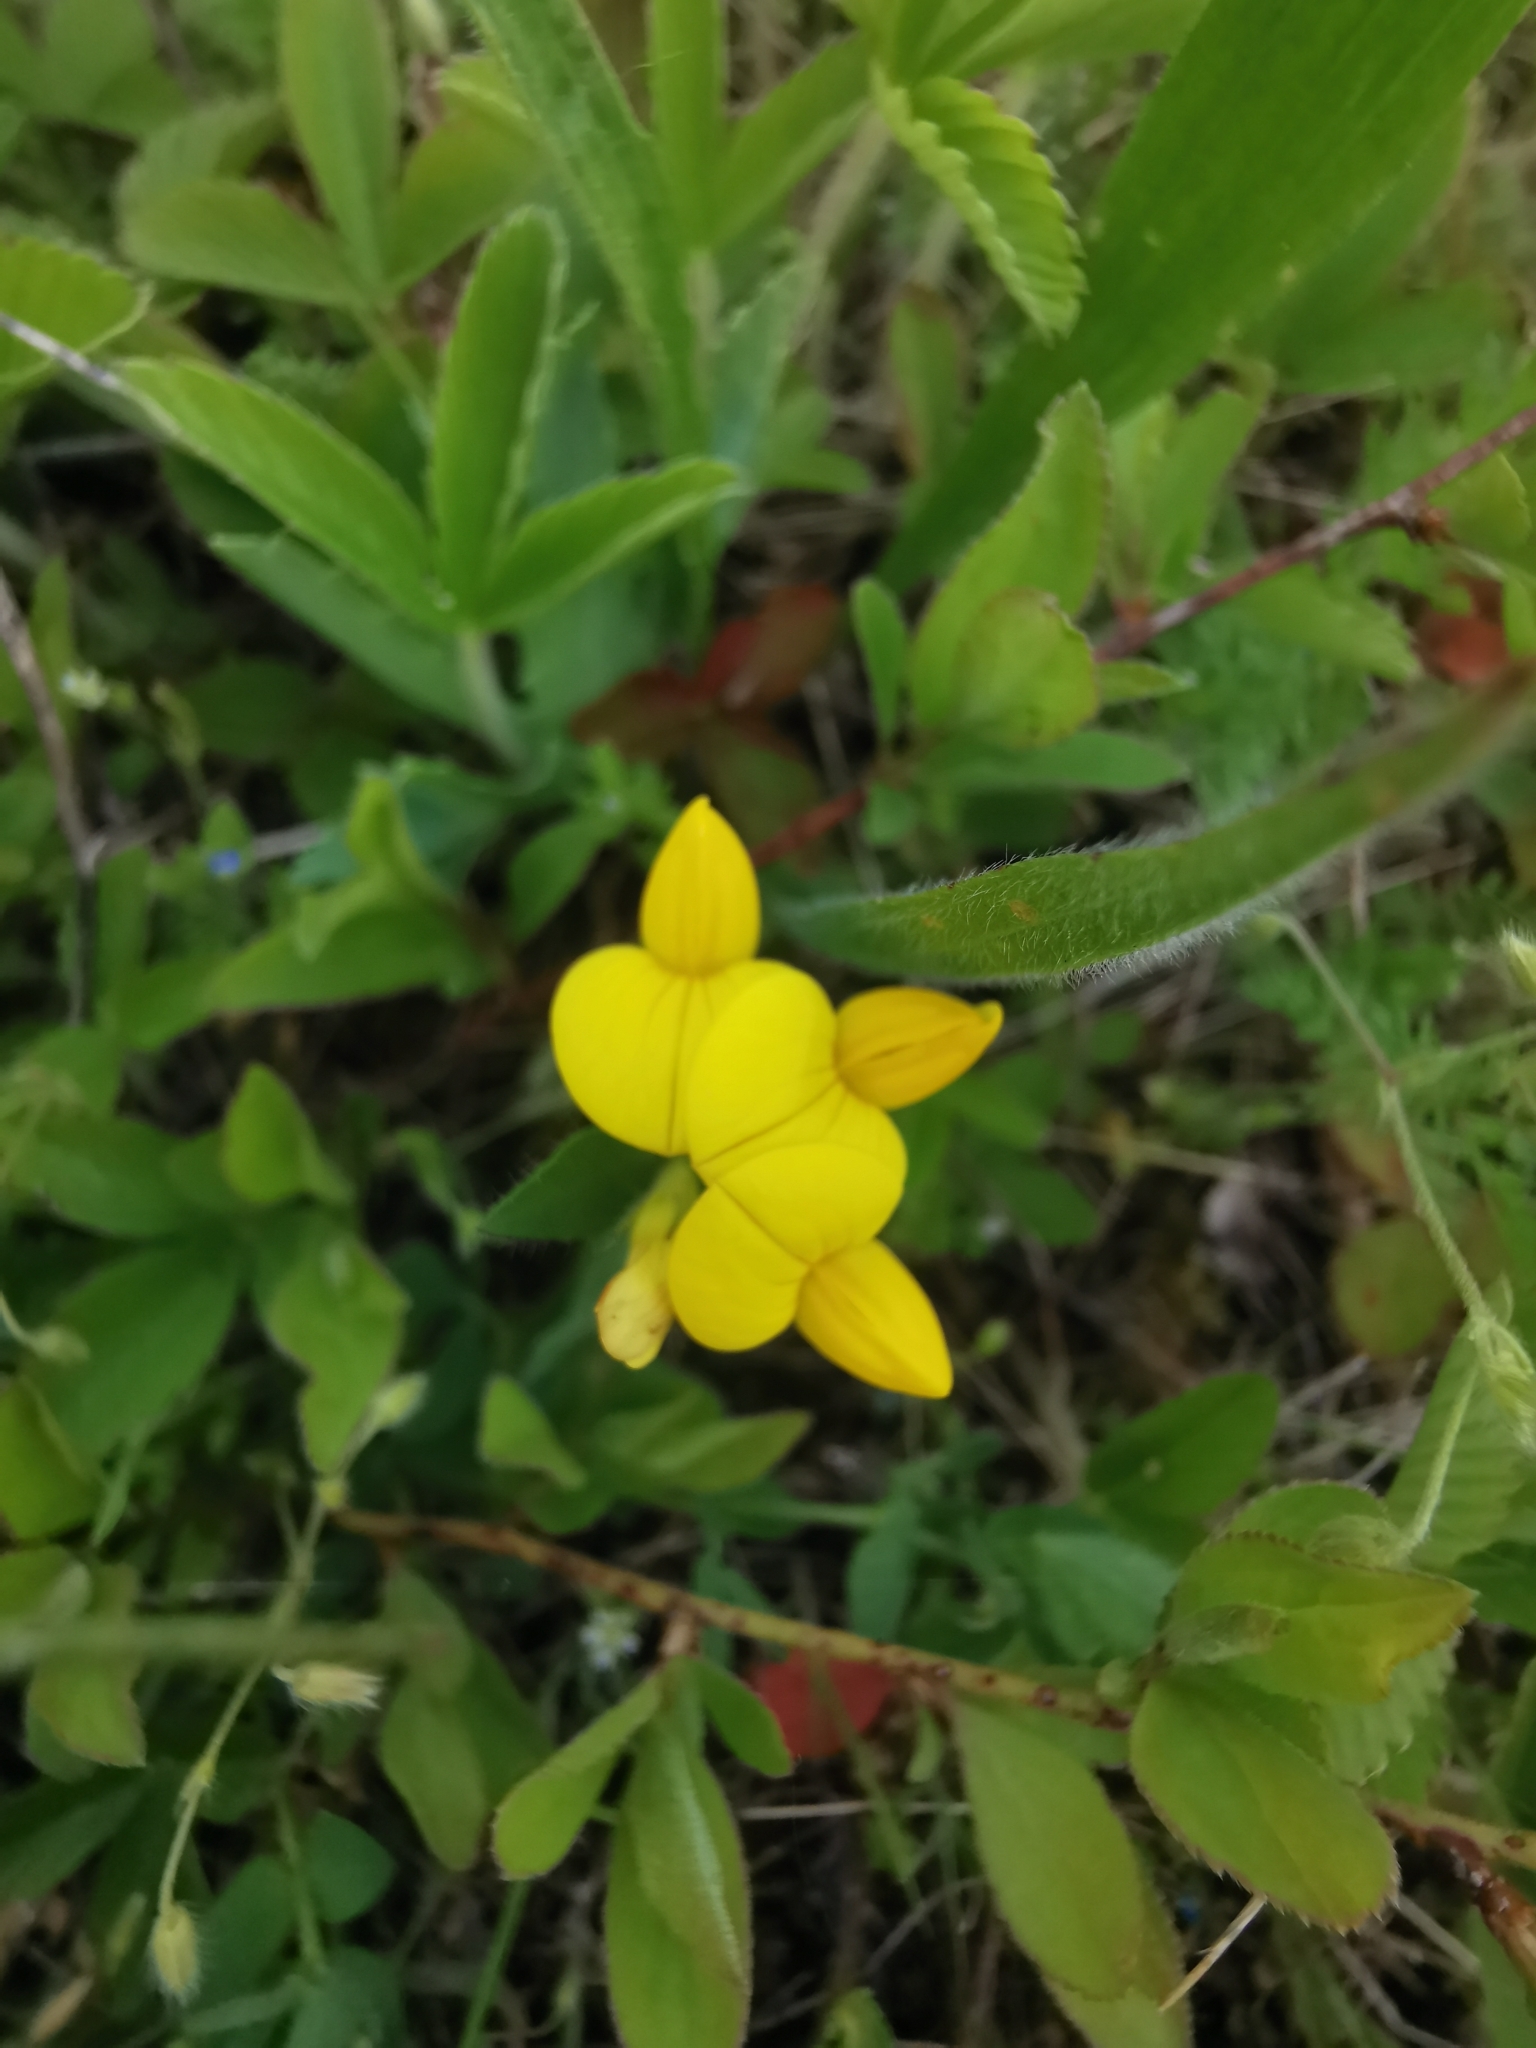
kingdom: Plantae
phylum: Tracheophyta
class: Magnoliopsida
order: Fabales
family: Fabaceae
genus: Lotus
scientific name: Lotus corniculatus
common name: Common bird's-foot-trefoil
